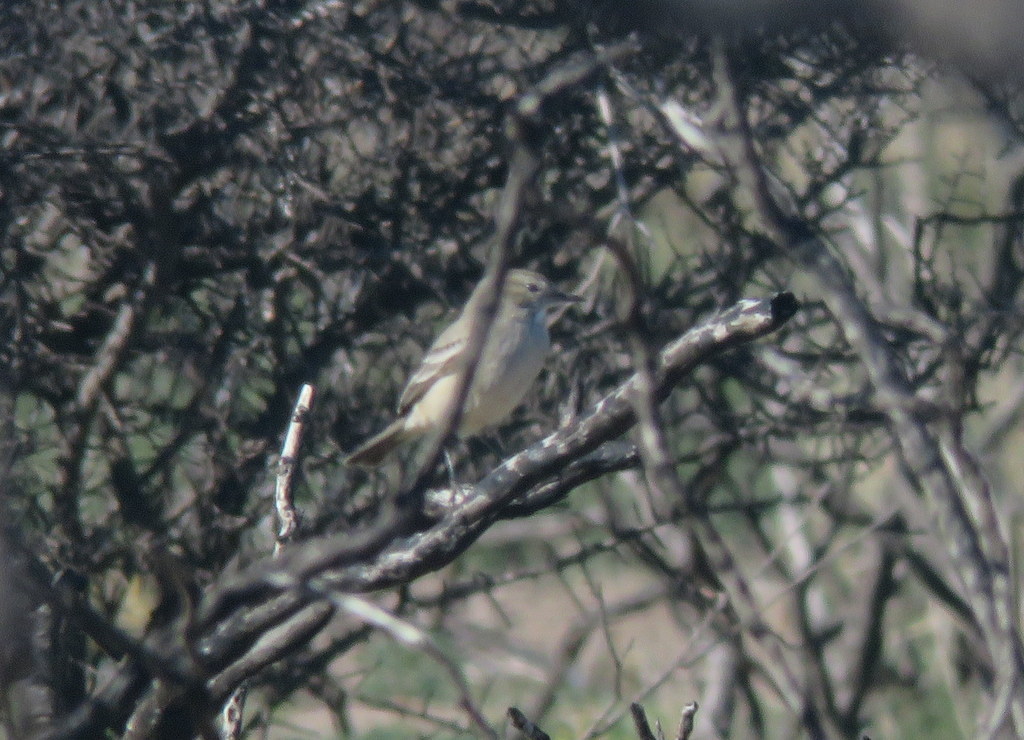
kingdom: Animalia
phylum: Chordata
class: Aves
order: Passeriformes
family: Tyrannidae
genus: Agriornis
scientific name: Agriornis murinus
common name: Lesser shrike-tyrant
